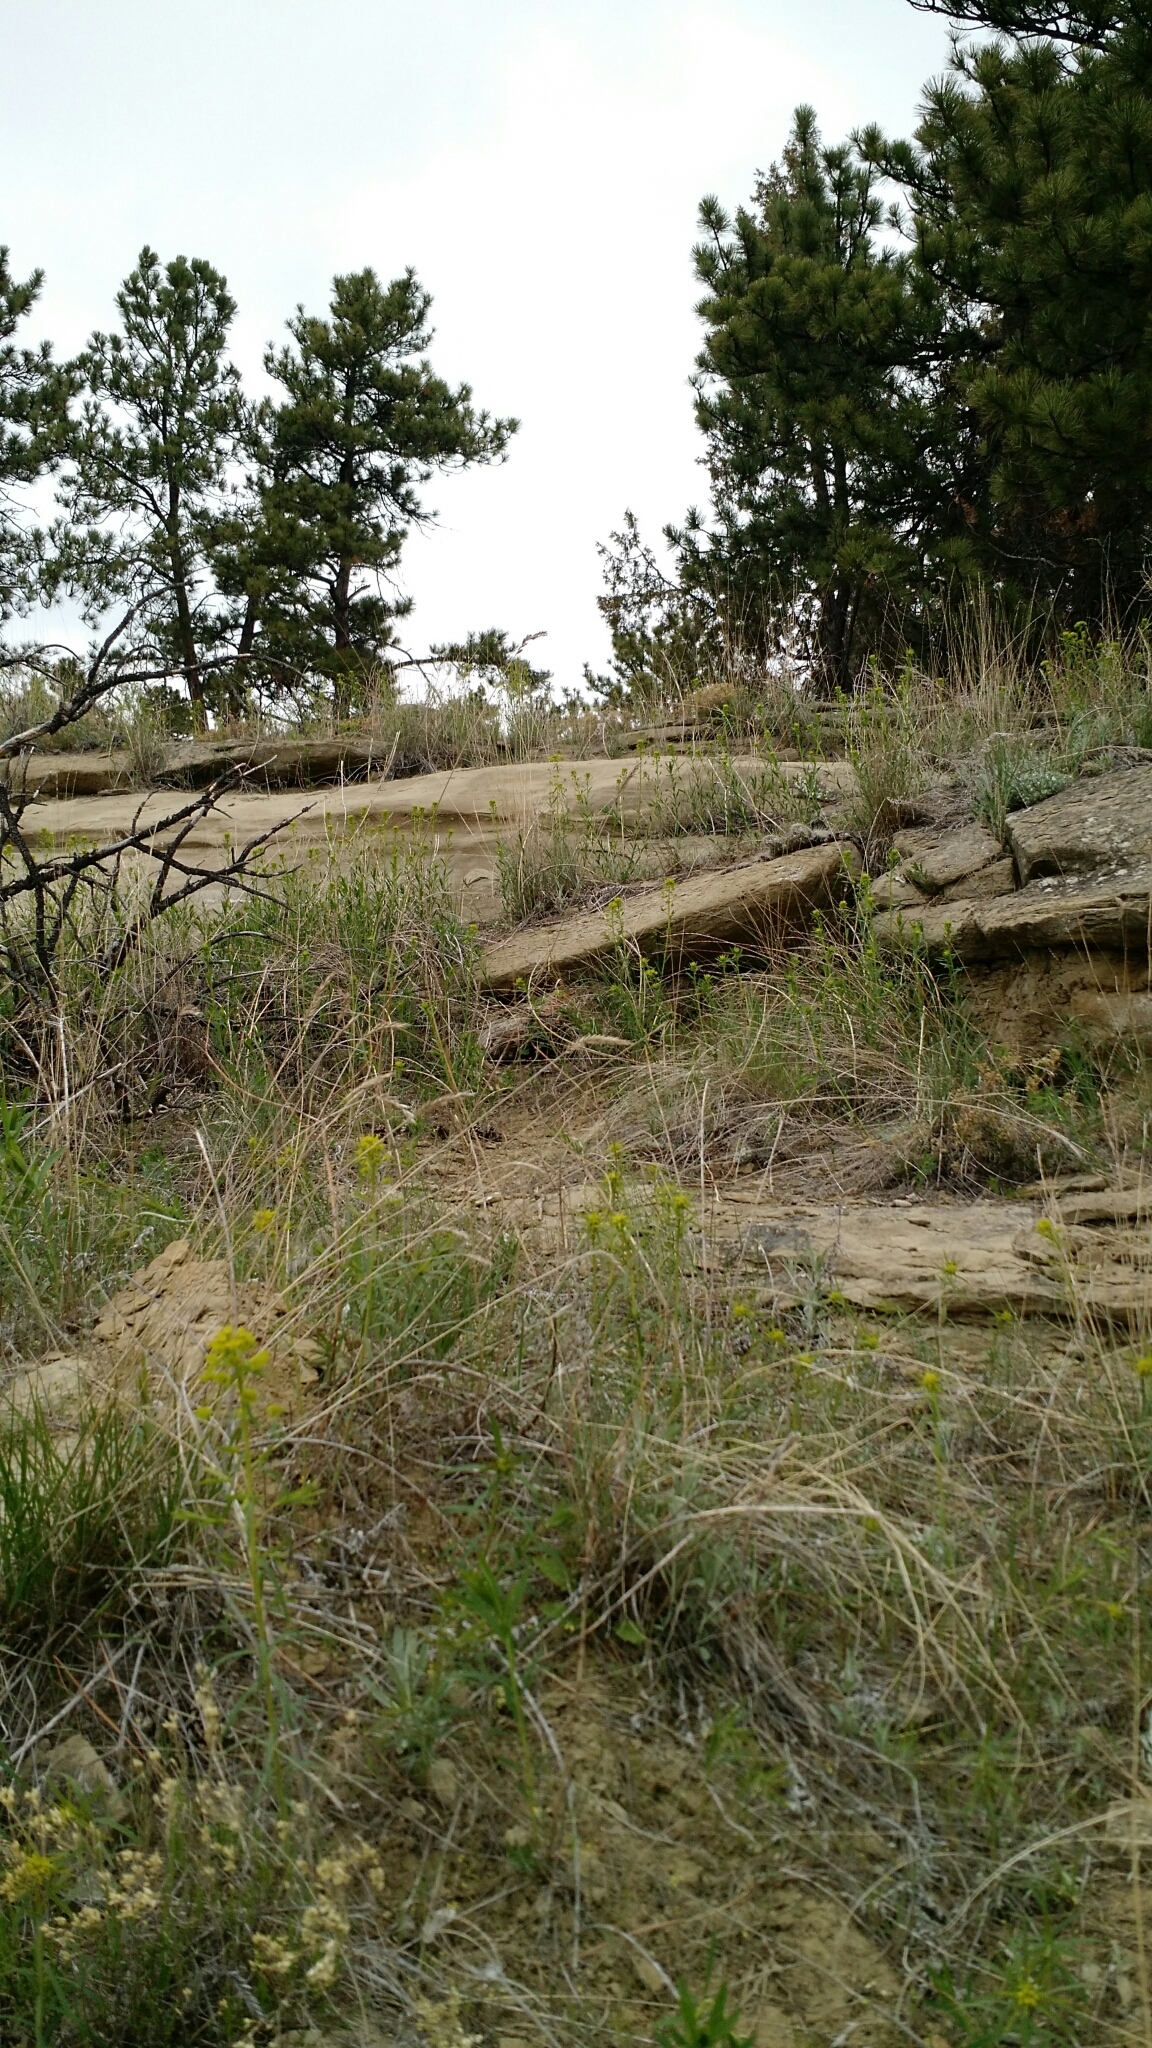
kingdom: Plantae
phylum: Tracheophyta
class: Magnoliopsida
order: Malpighiales
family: Euphorbiaceae
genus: Euphorbia
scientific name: Euphorbia virgata
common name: Leafy spurge
